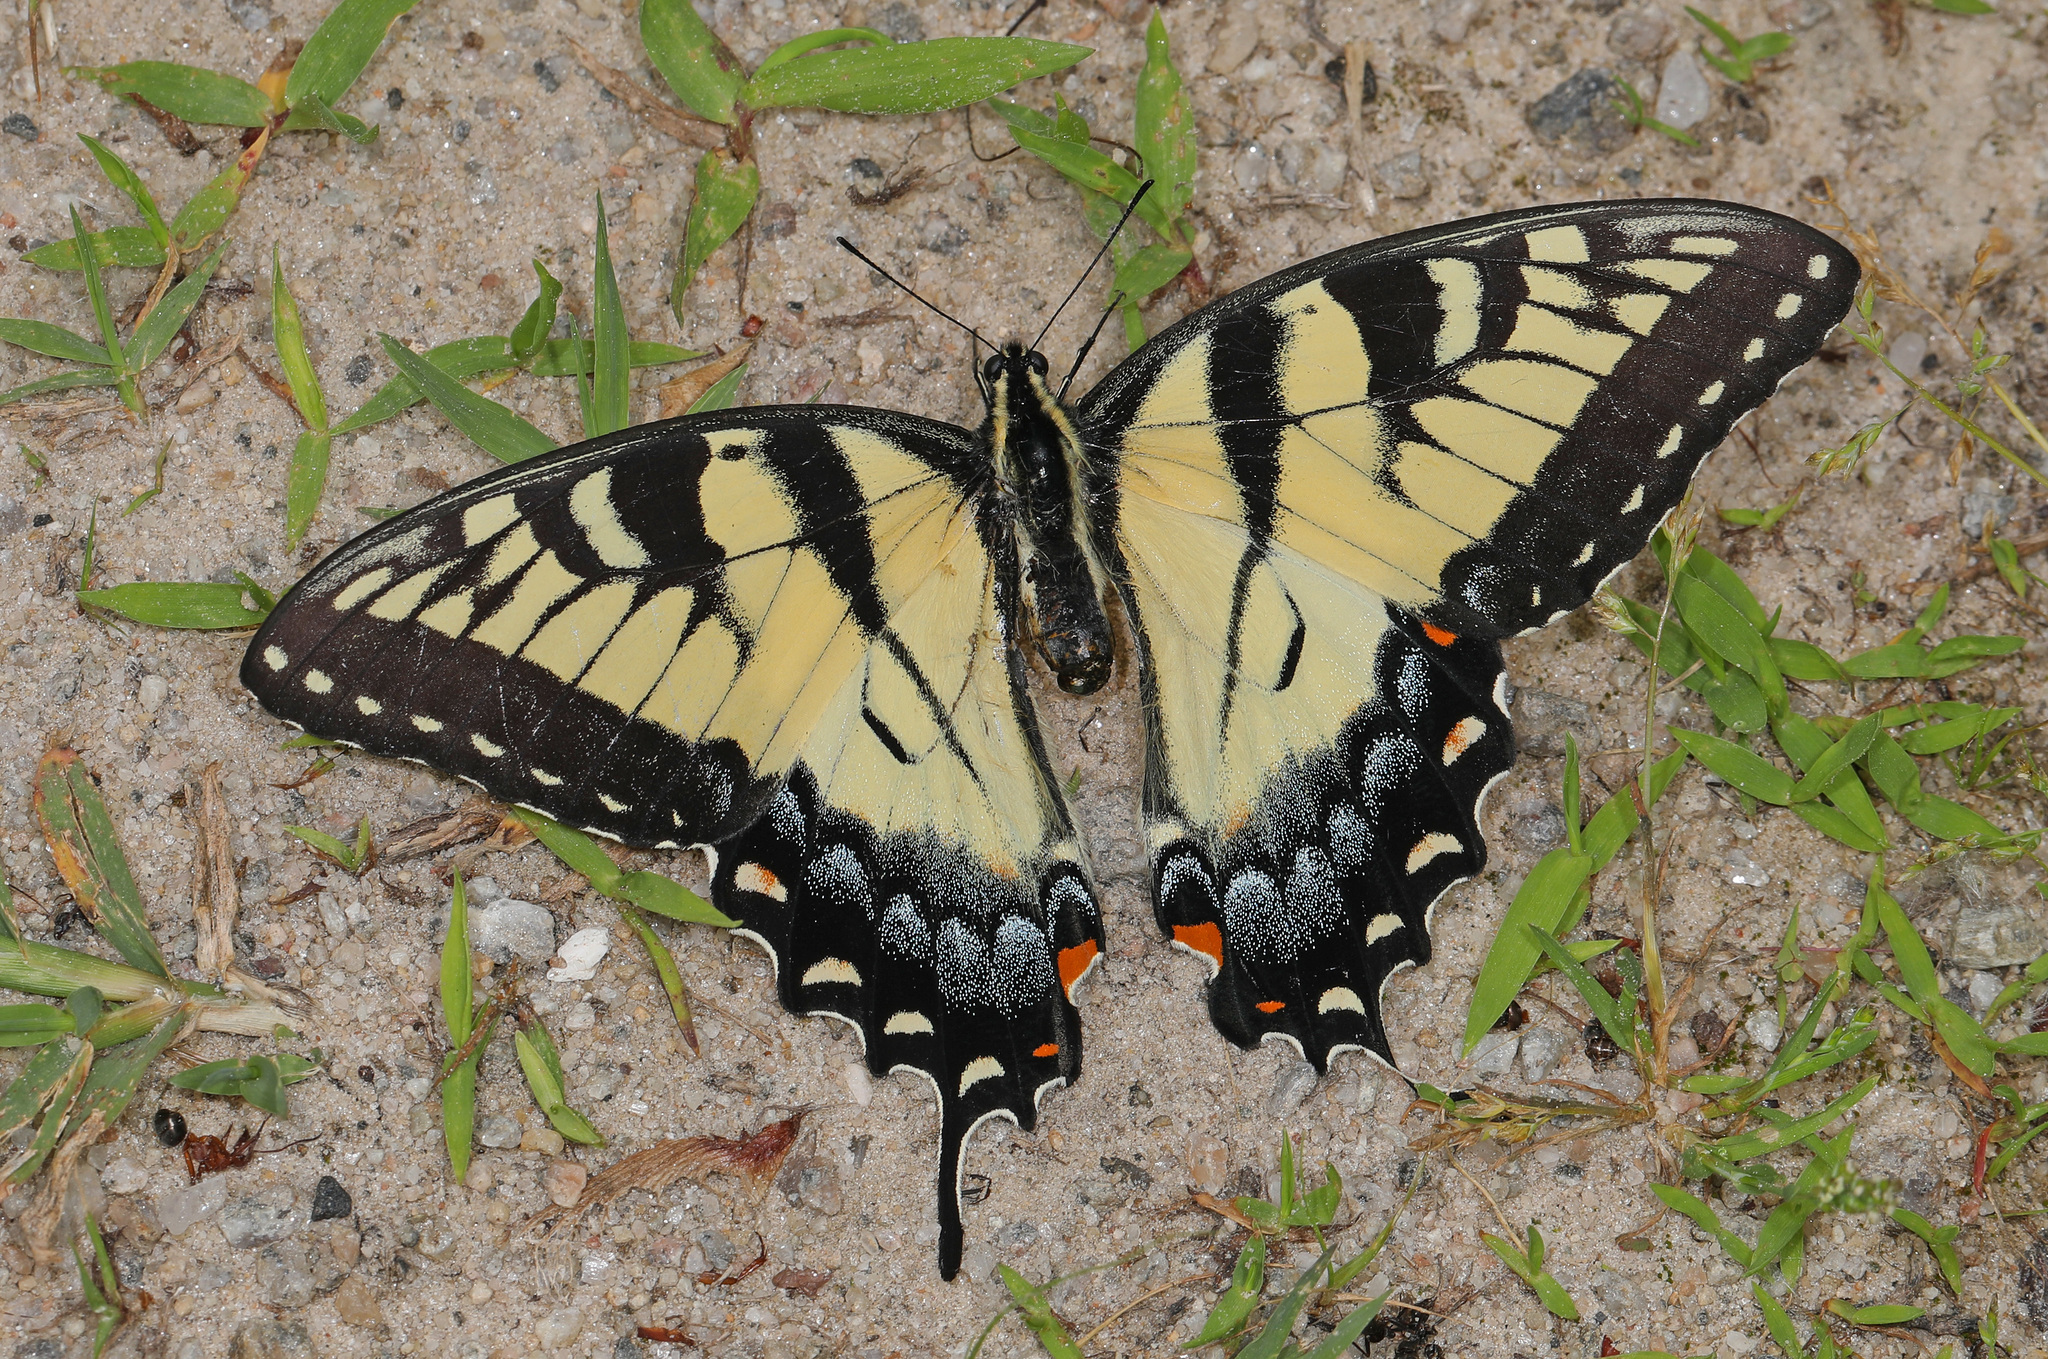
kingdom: Animalia
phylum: Arthropoda
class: Insecta
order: Lepidoptera
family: Papilionidae
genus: Papilio
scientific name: Papilio glaucus
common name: Tiger swallowtail
